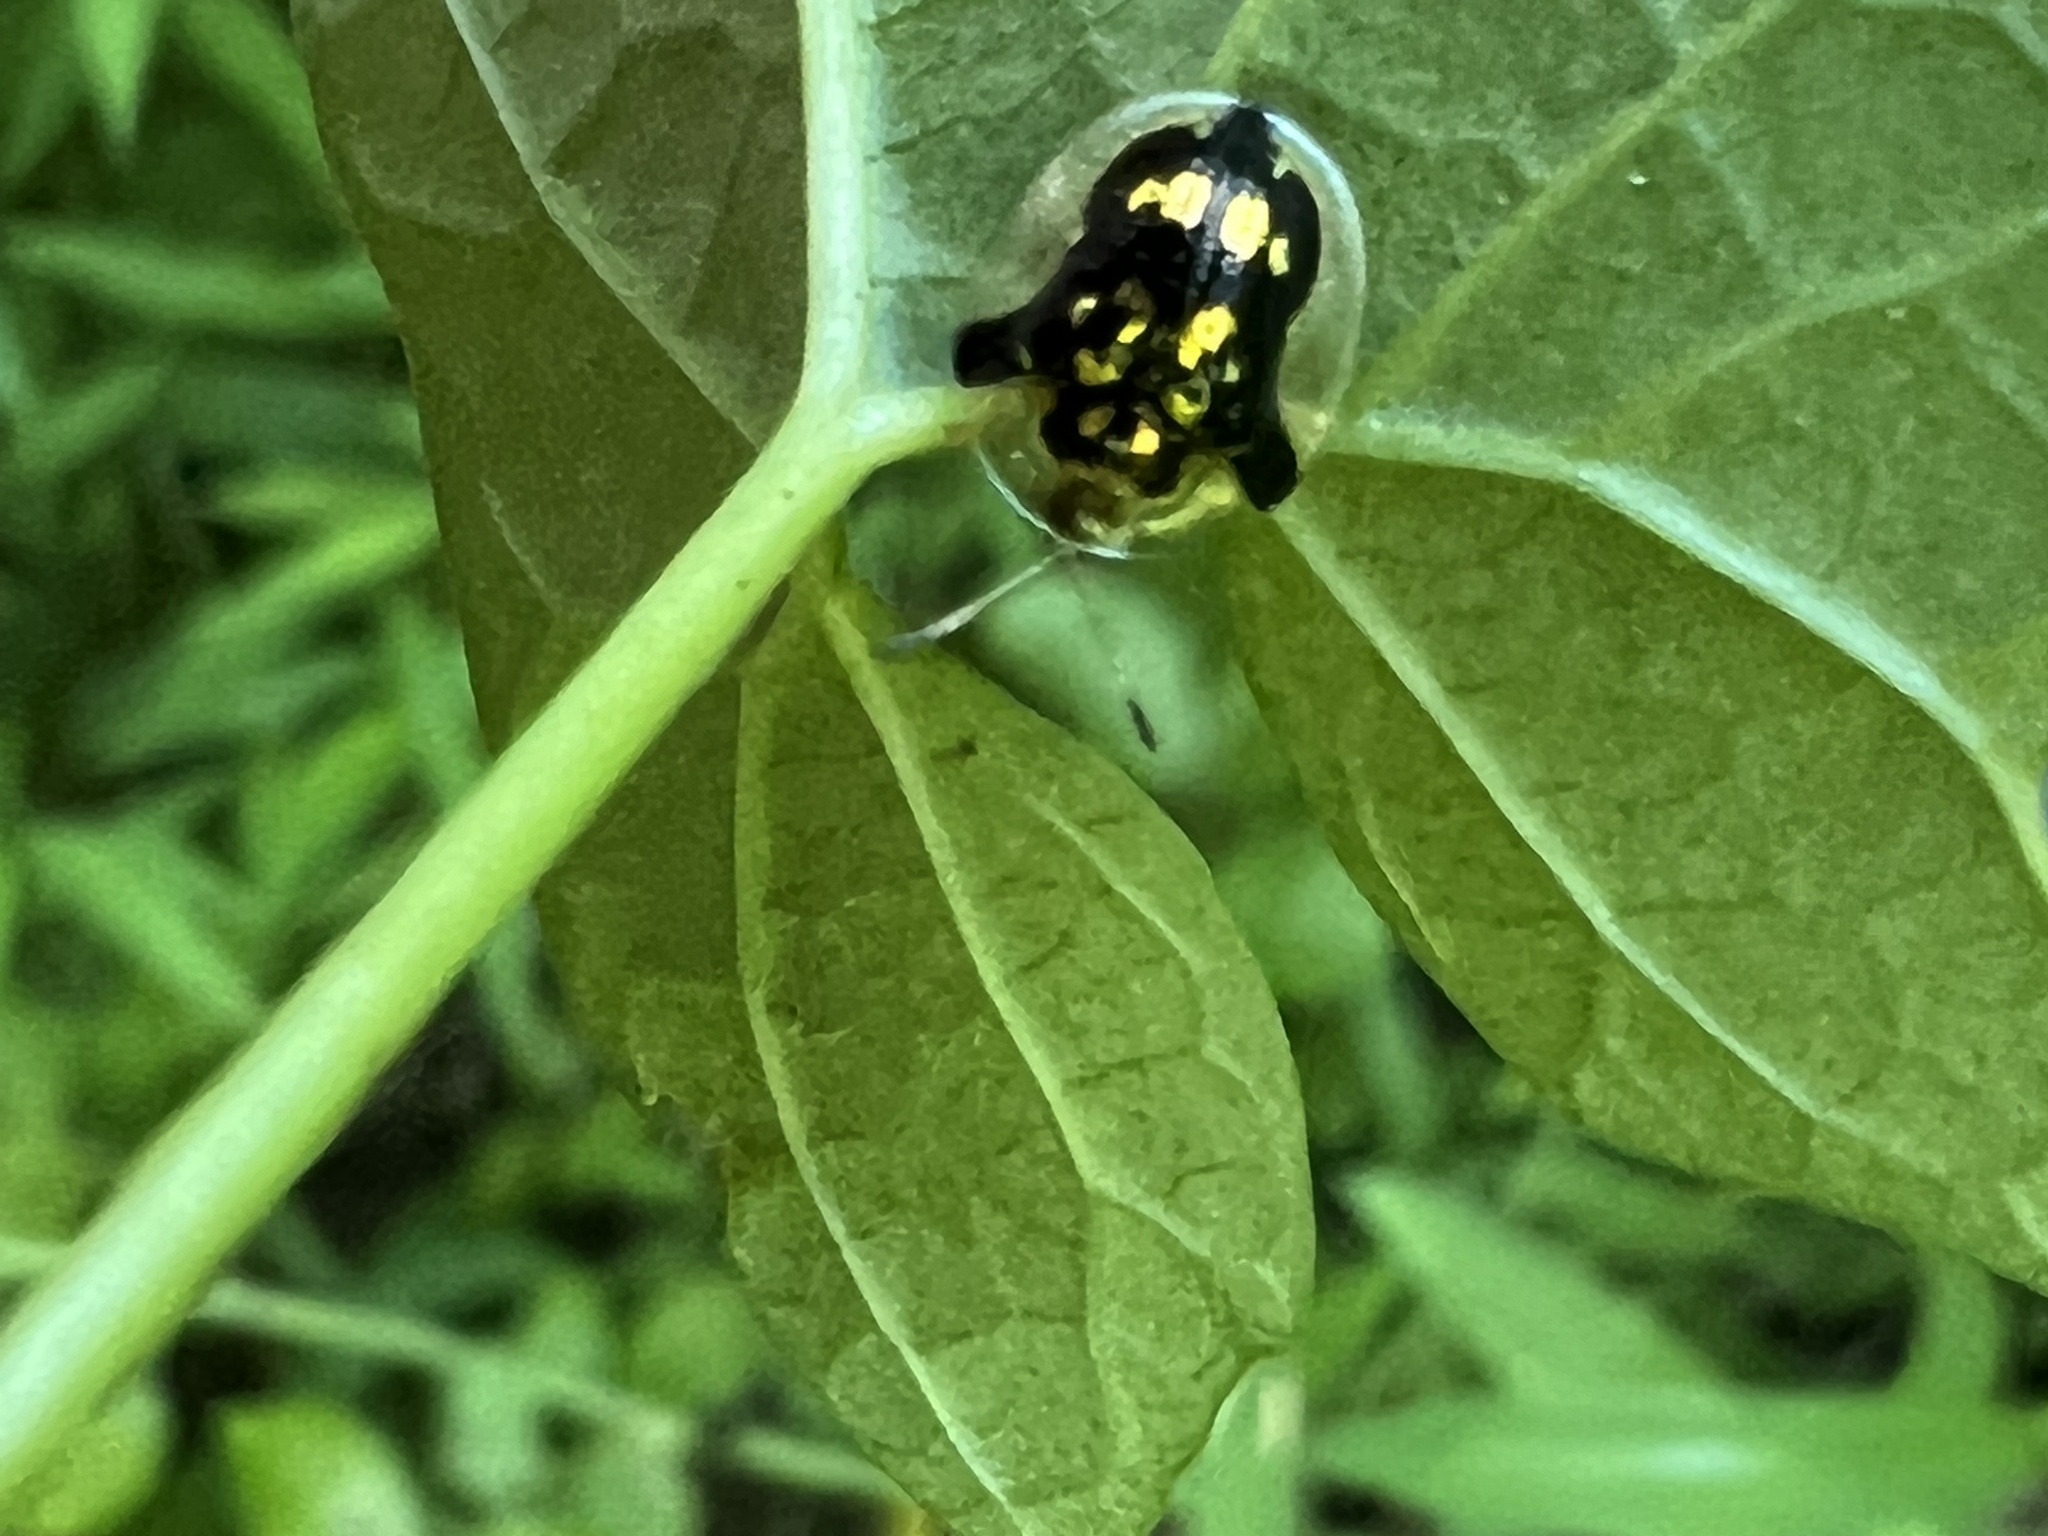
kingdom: Animalia
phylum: Arthropoda
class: Insecta
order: Coleoptera
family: Chrysomelidae
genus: Deloyala
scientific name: Deloyala guttata
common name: Mottled tortoise beetle
